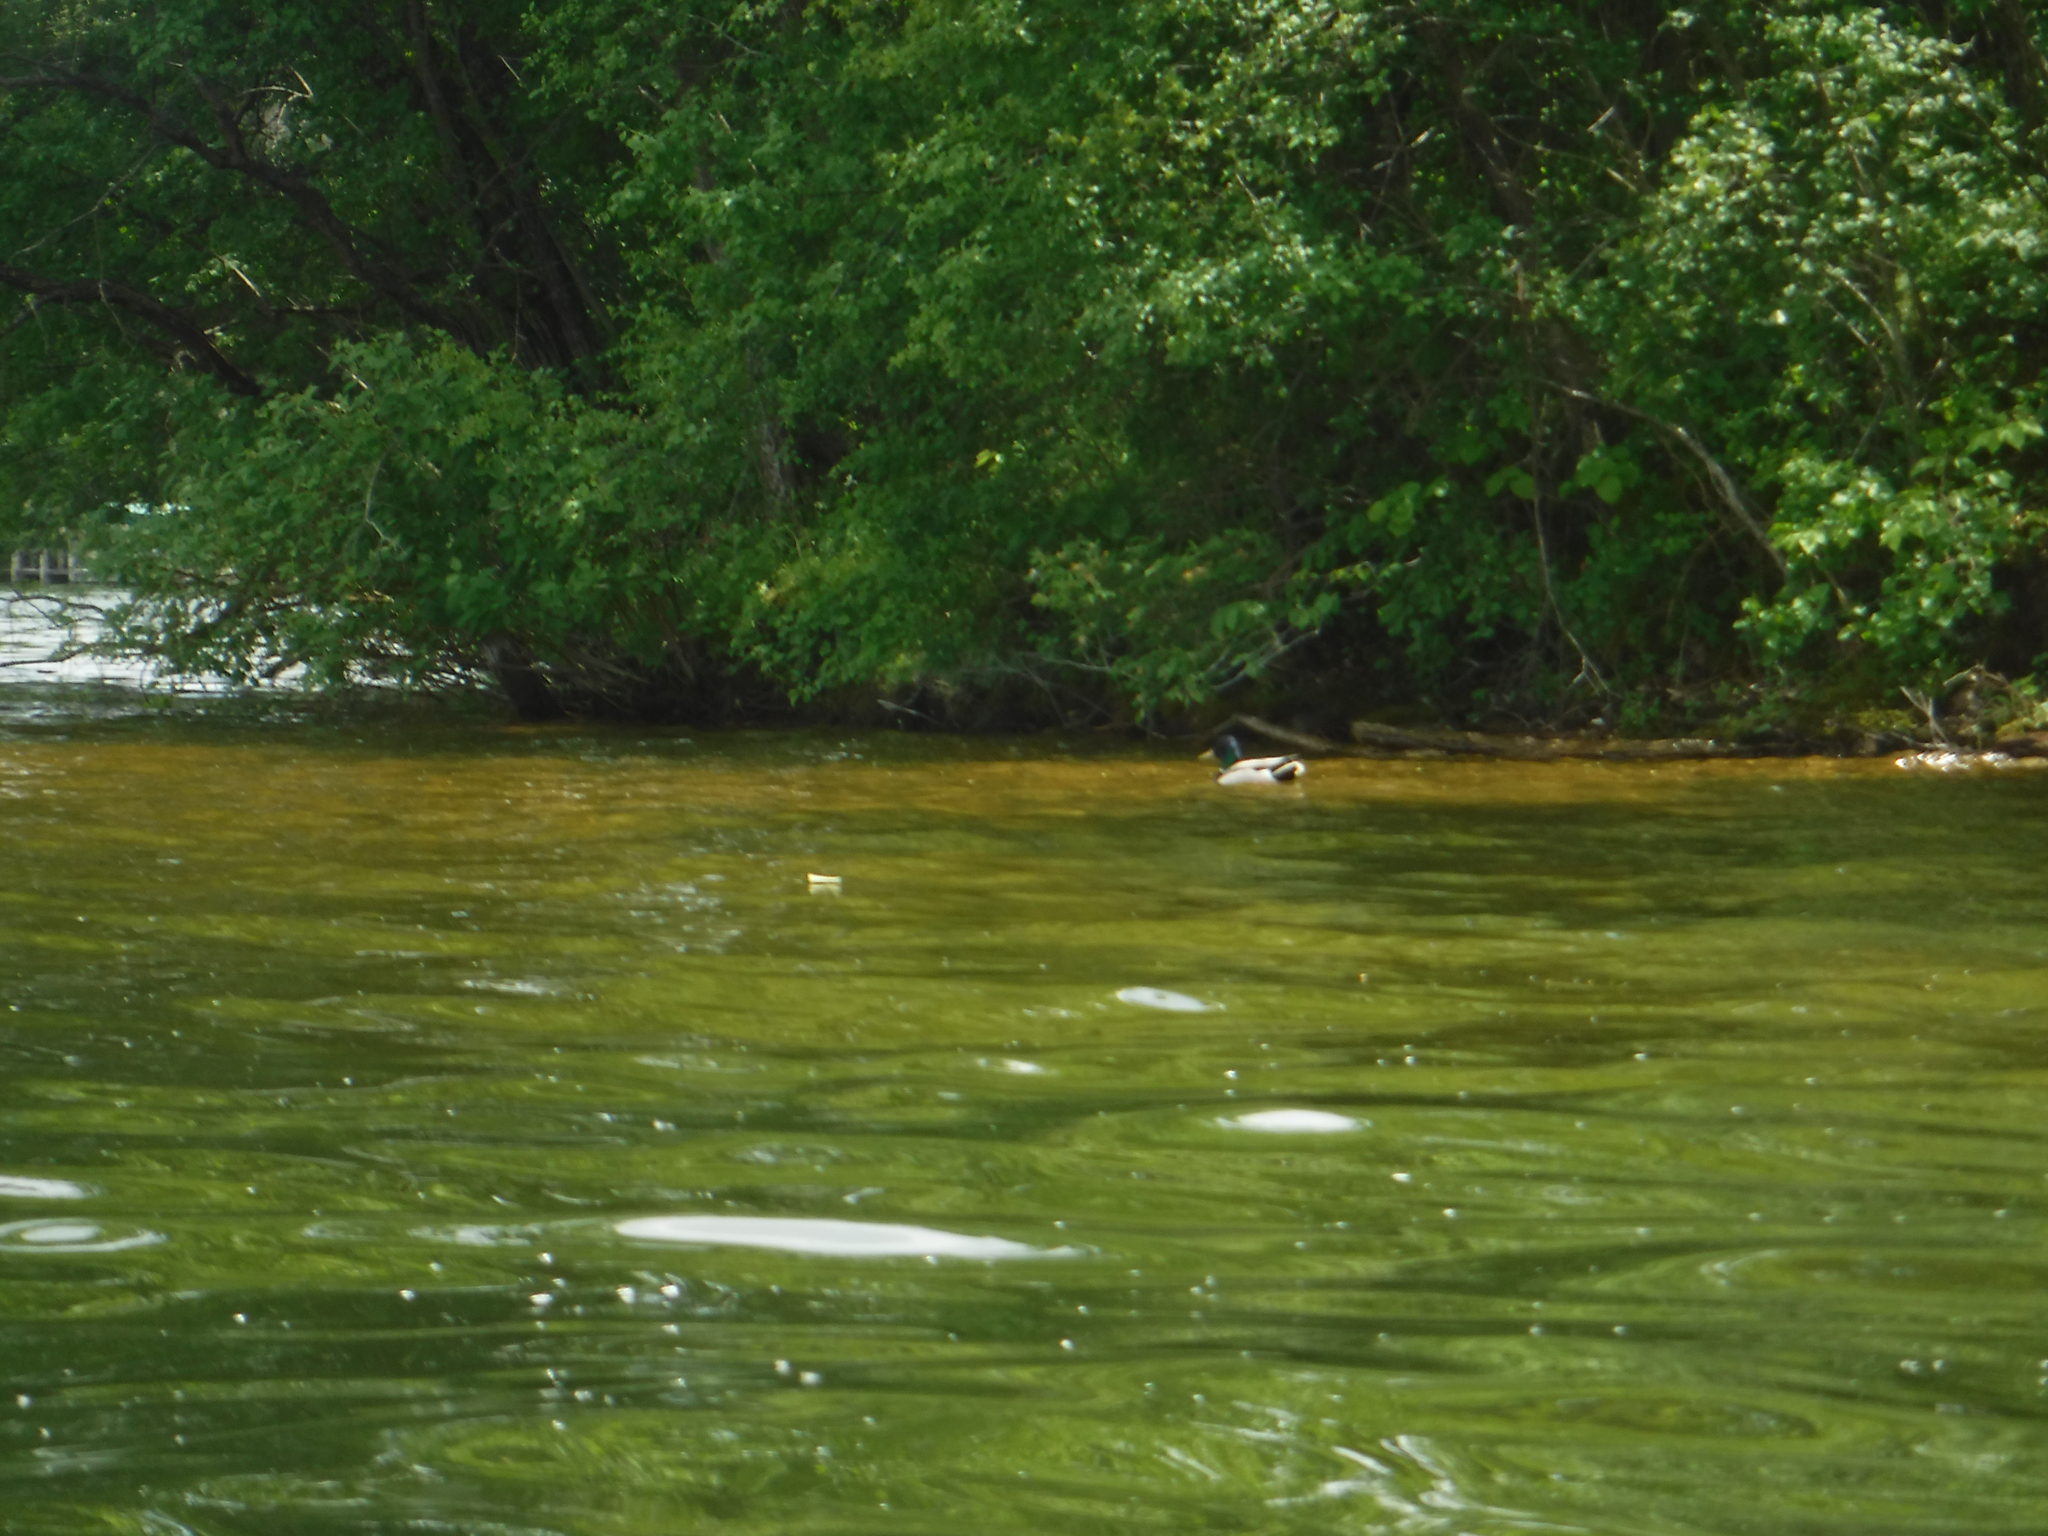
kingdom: Animalia
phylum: Chordata
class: Aves
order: Anseriformes
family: Anatidae
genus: Anas
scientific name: Anas platyrhynchos
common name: Mallard
